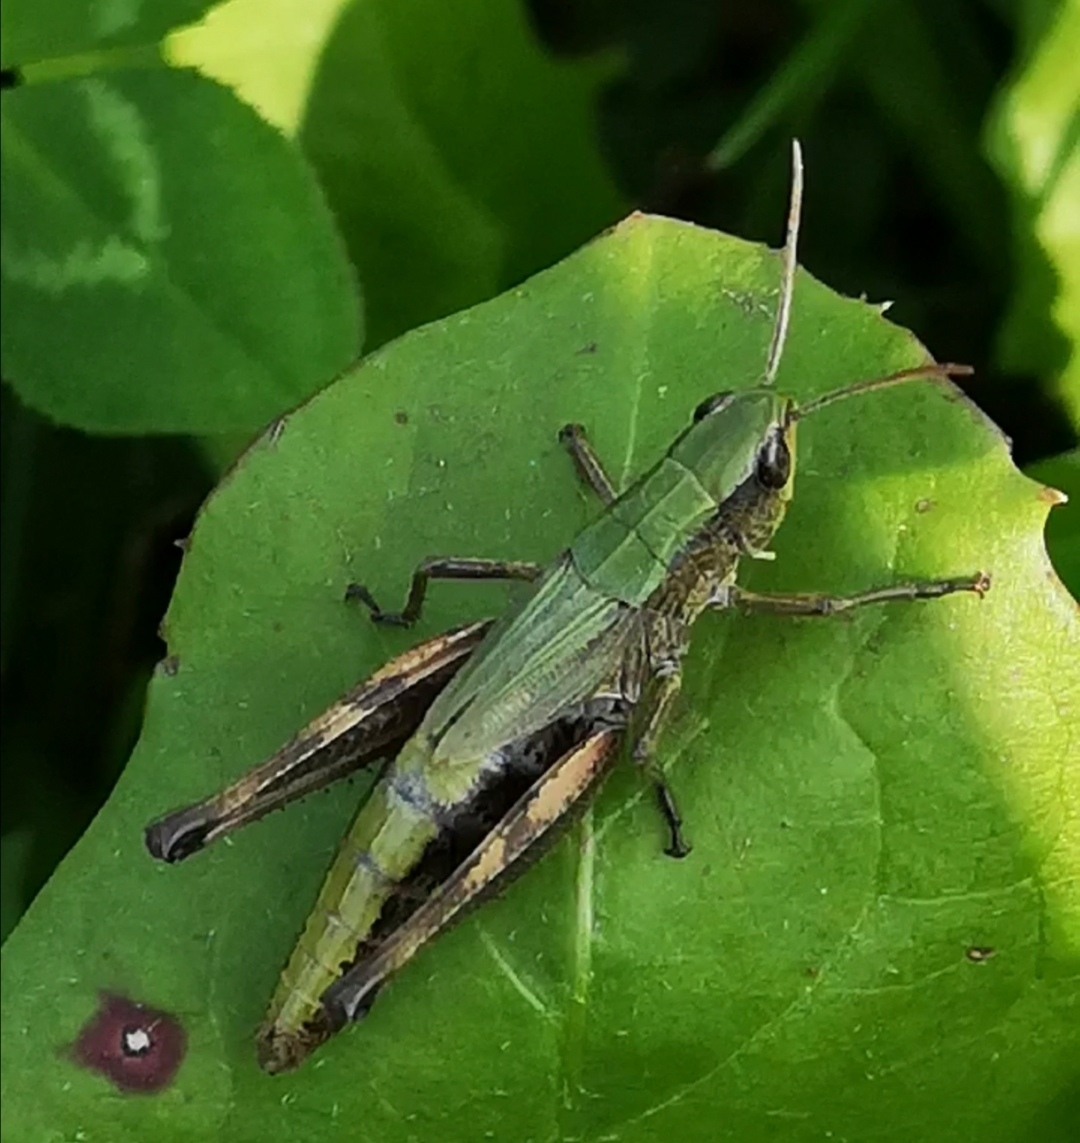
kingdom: Animalia
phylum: Arthropoda
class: Insecta
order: Orthoptera
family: Acrididae
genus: Pseudochorthippus
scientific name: Pseudochorthippus parallelus
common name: Meadow grasshopper
